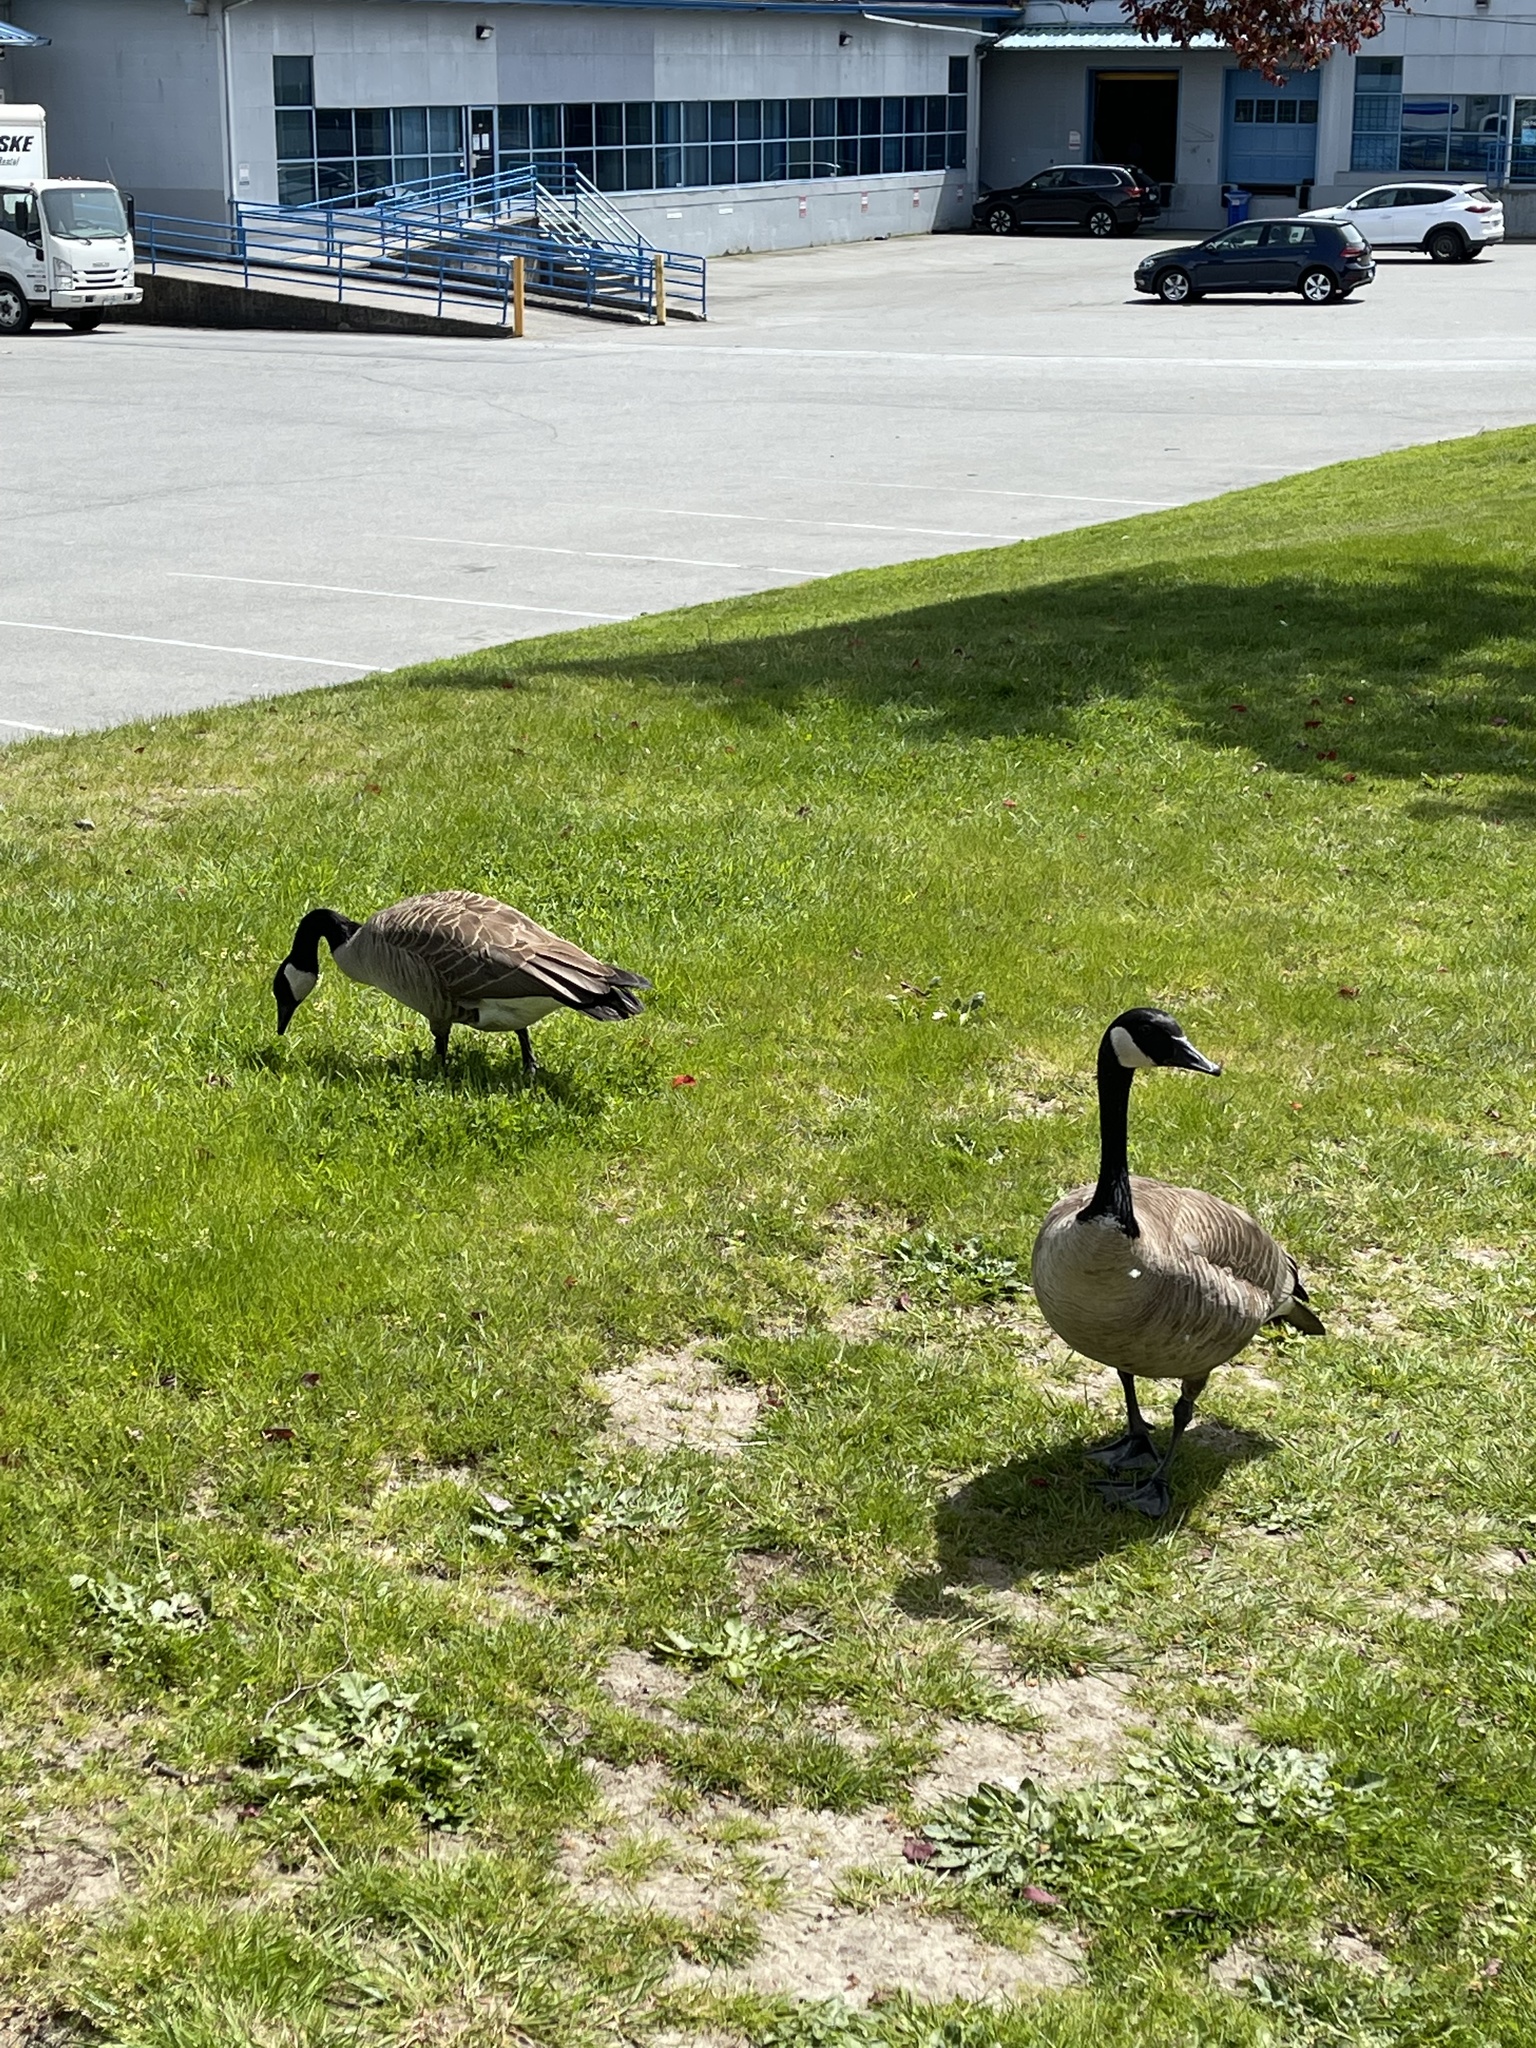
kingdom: Animalia
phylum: Chordata
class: Aves
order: Anseriformes
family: Anatidae
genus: Branta
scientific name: Branta canadensis
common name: Canada goose
